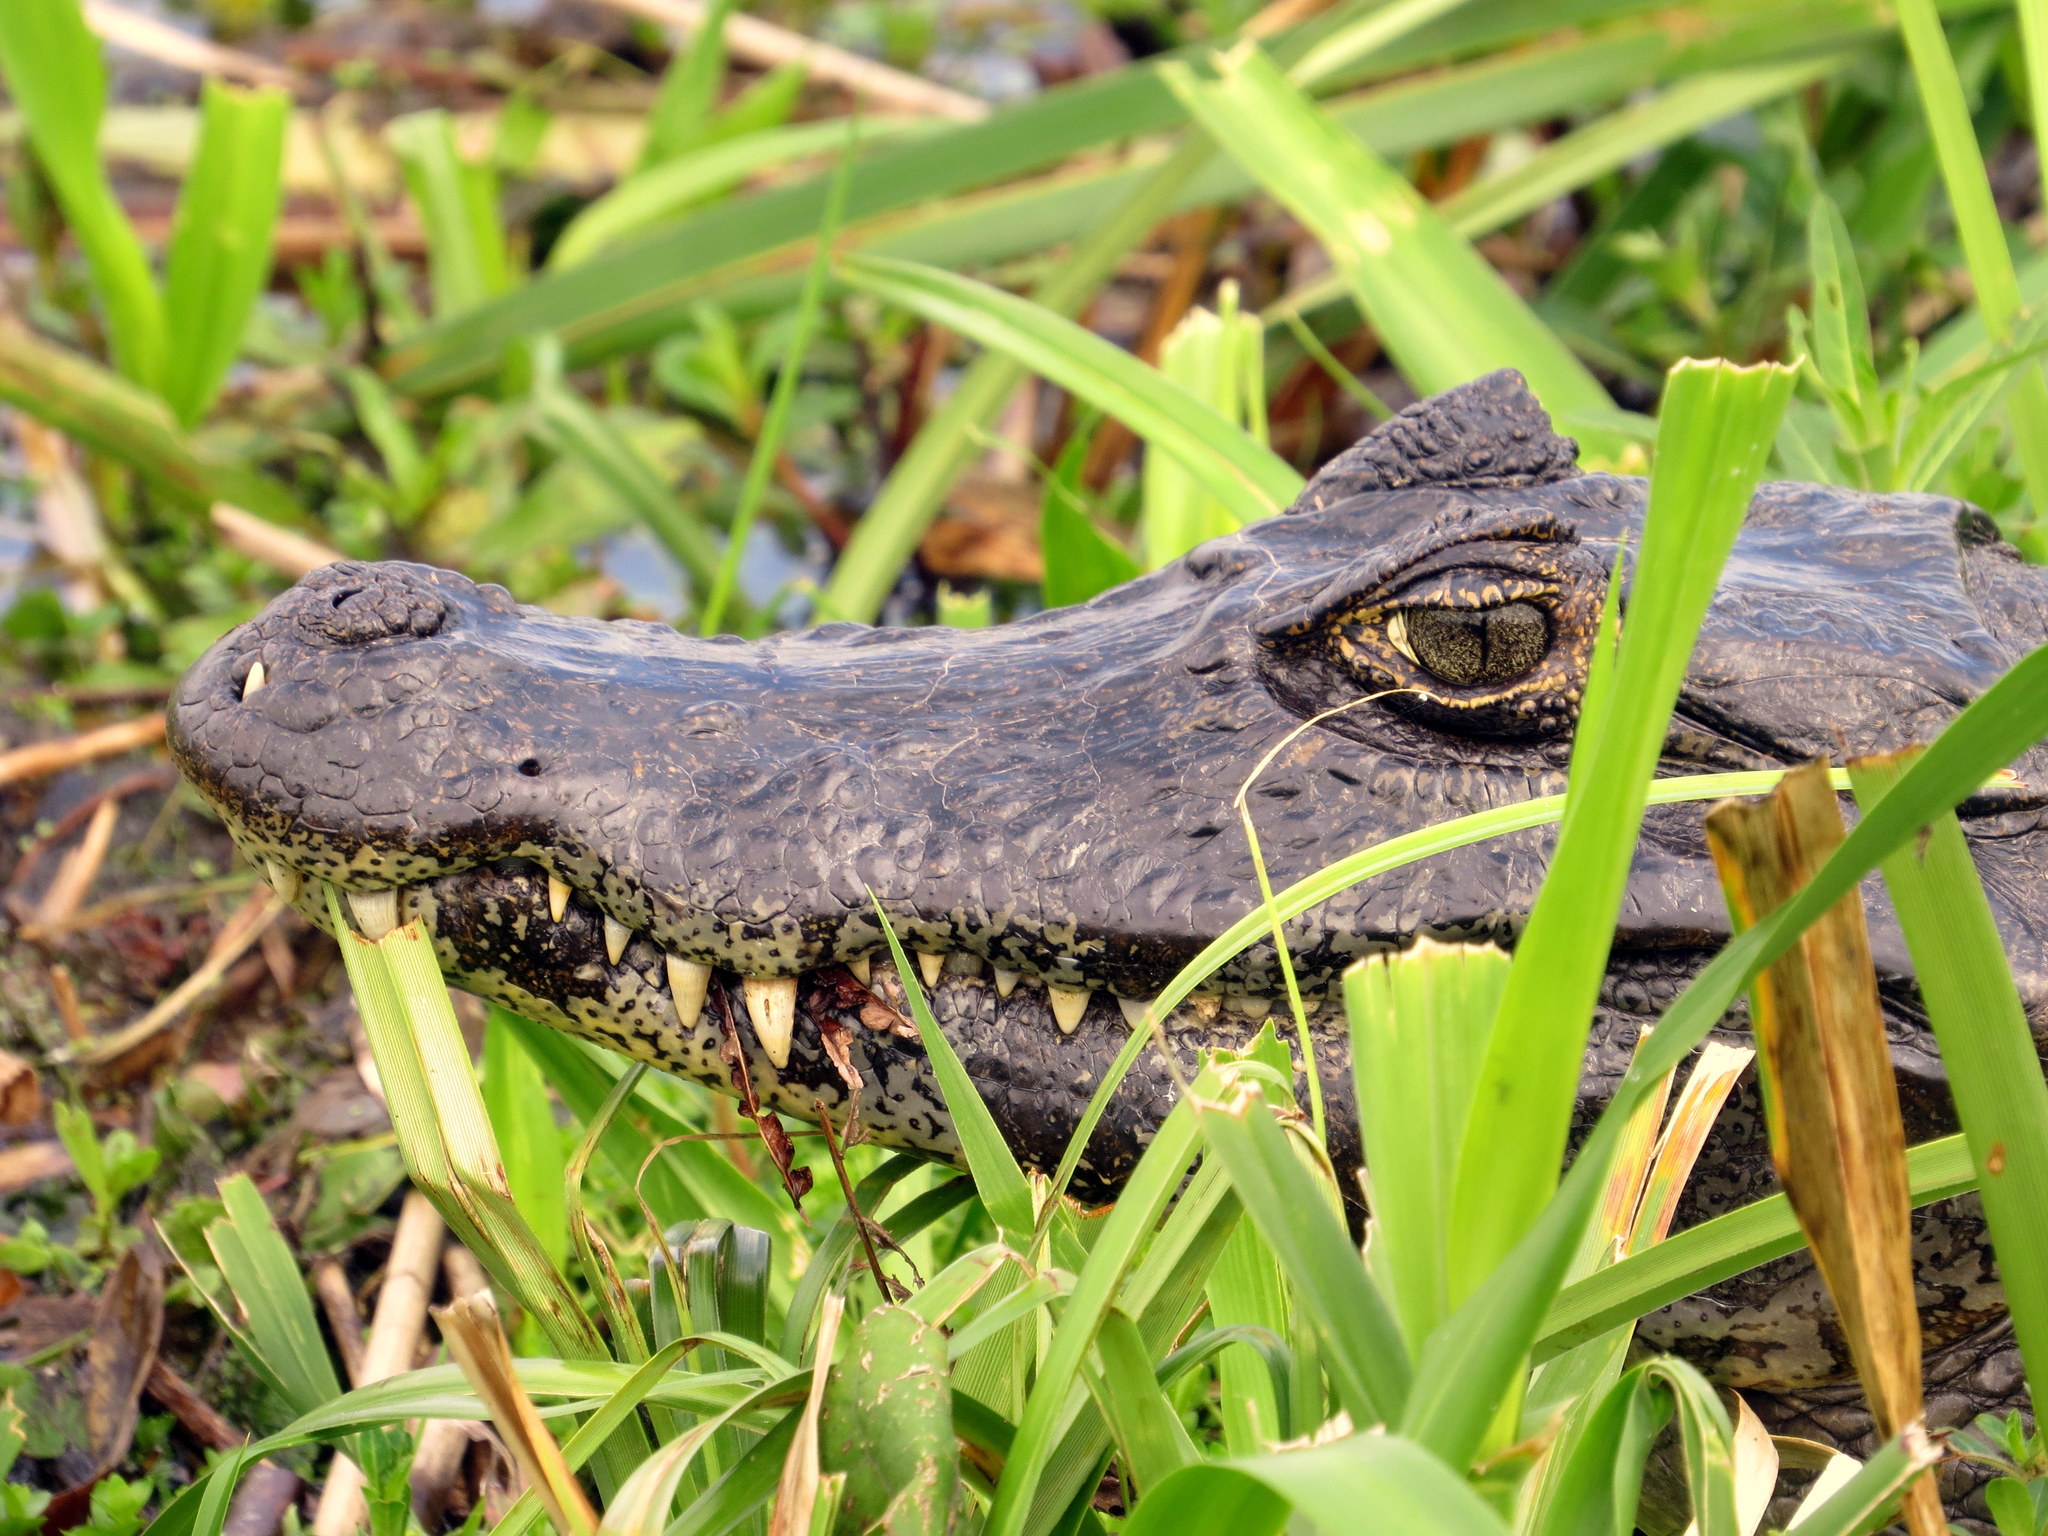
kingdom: Animalia
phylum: Chordata
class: Crocodylia
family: Alligatoridae
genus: Caiman
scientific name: Caiman yacare
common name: Yacare caiman
